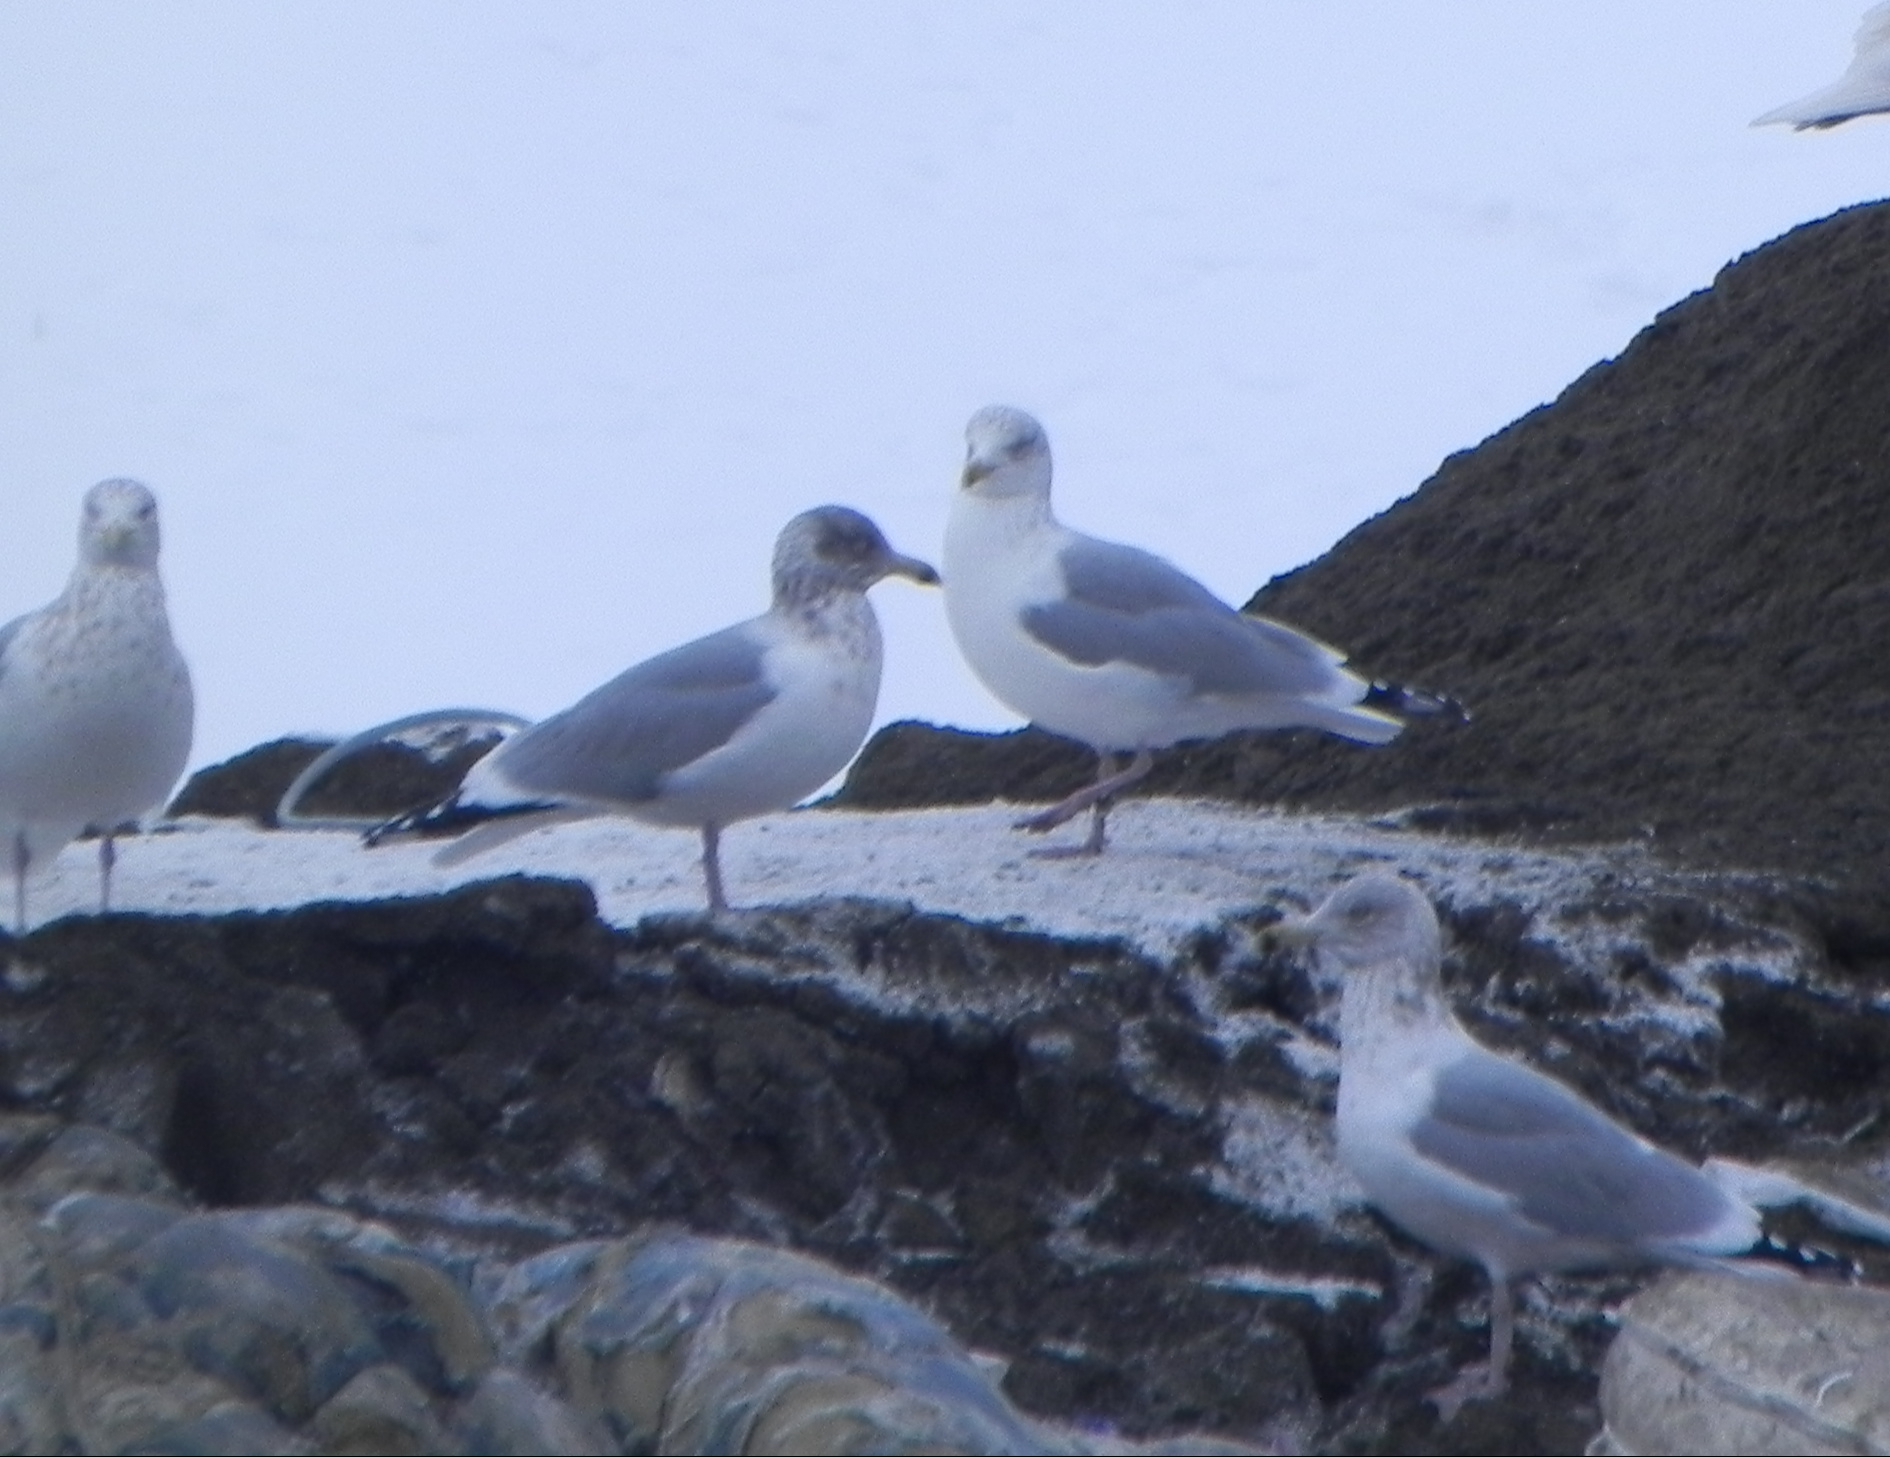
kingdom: Animalia
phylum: Chordata
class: Aves
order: Charadriiformes
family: Laridae
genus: Larus
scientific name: Larus argentatus
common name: Herring gull
